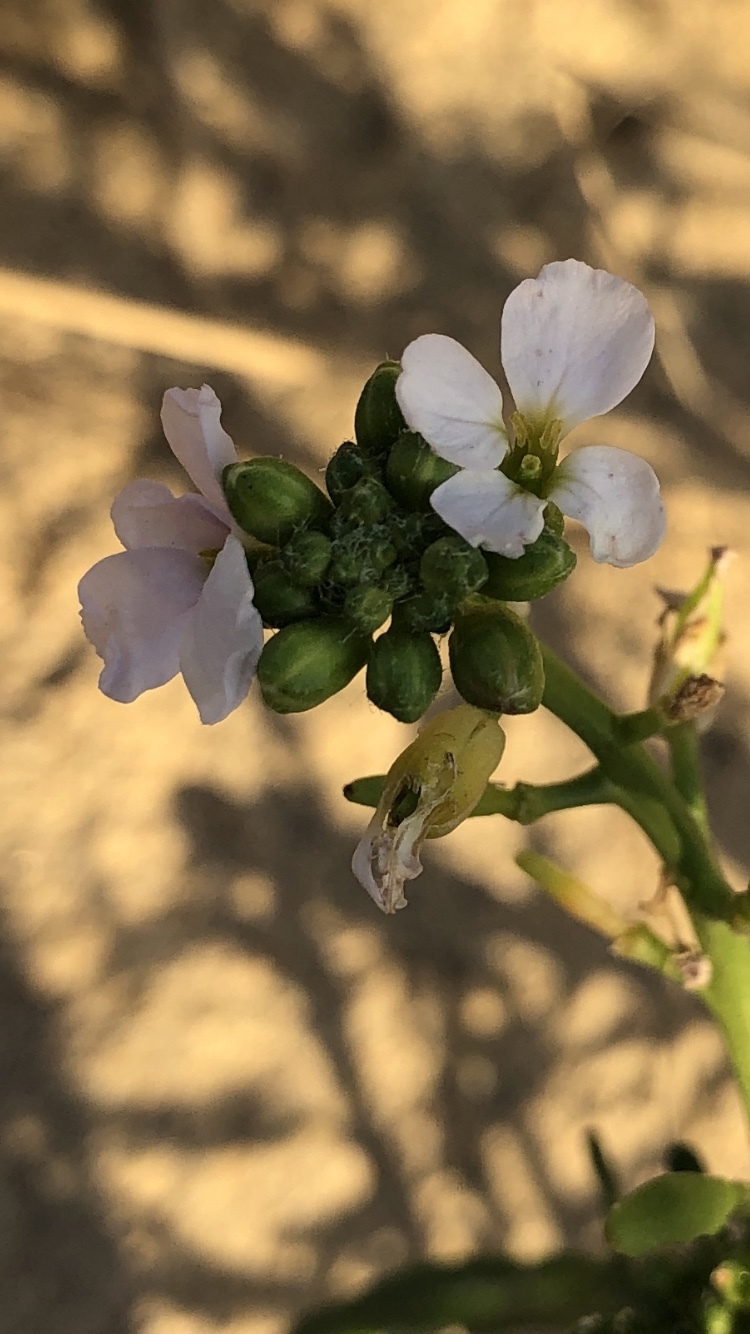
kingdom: Plantae
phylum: Tracheophyta
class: Magnoliopsida
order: Brassicales
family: Brassicaceae
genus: Cakile
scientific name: Cakile maritima
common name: Sea rocket
